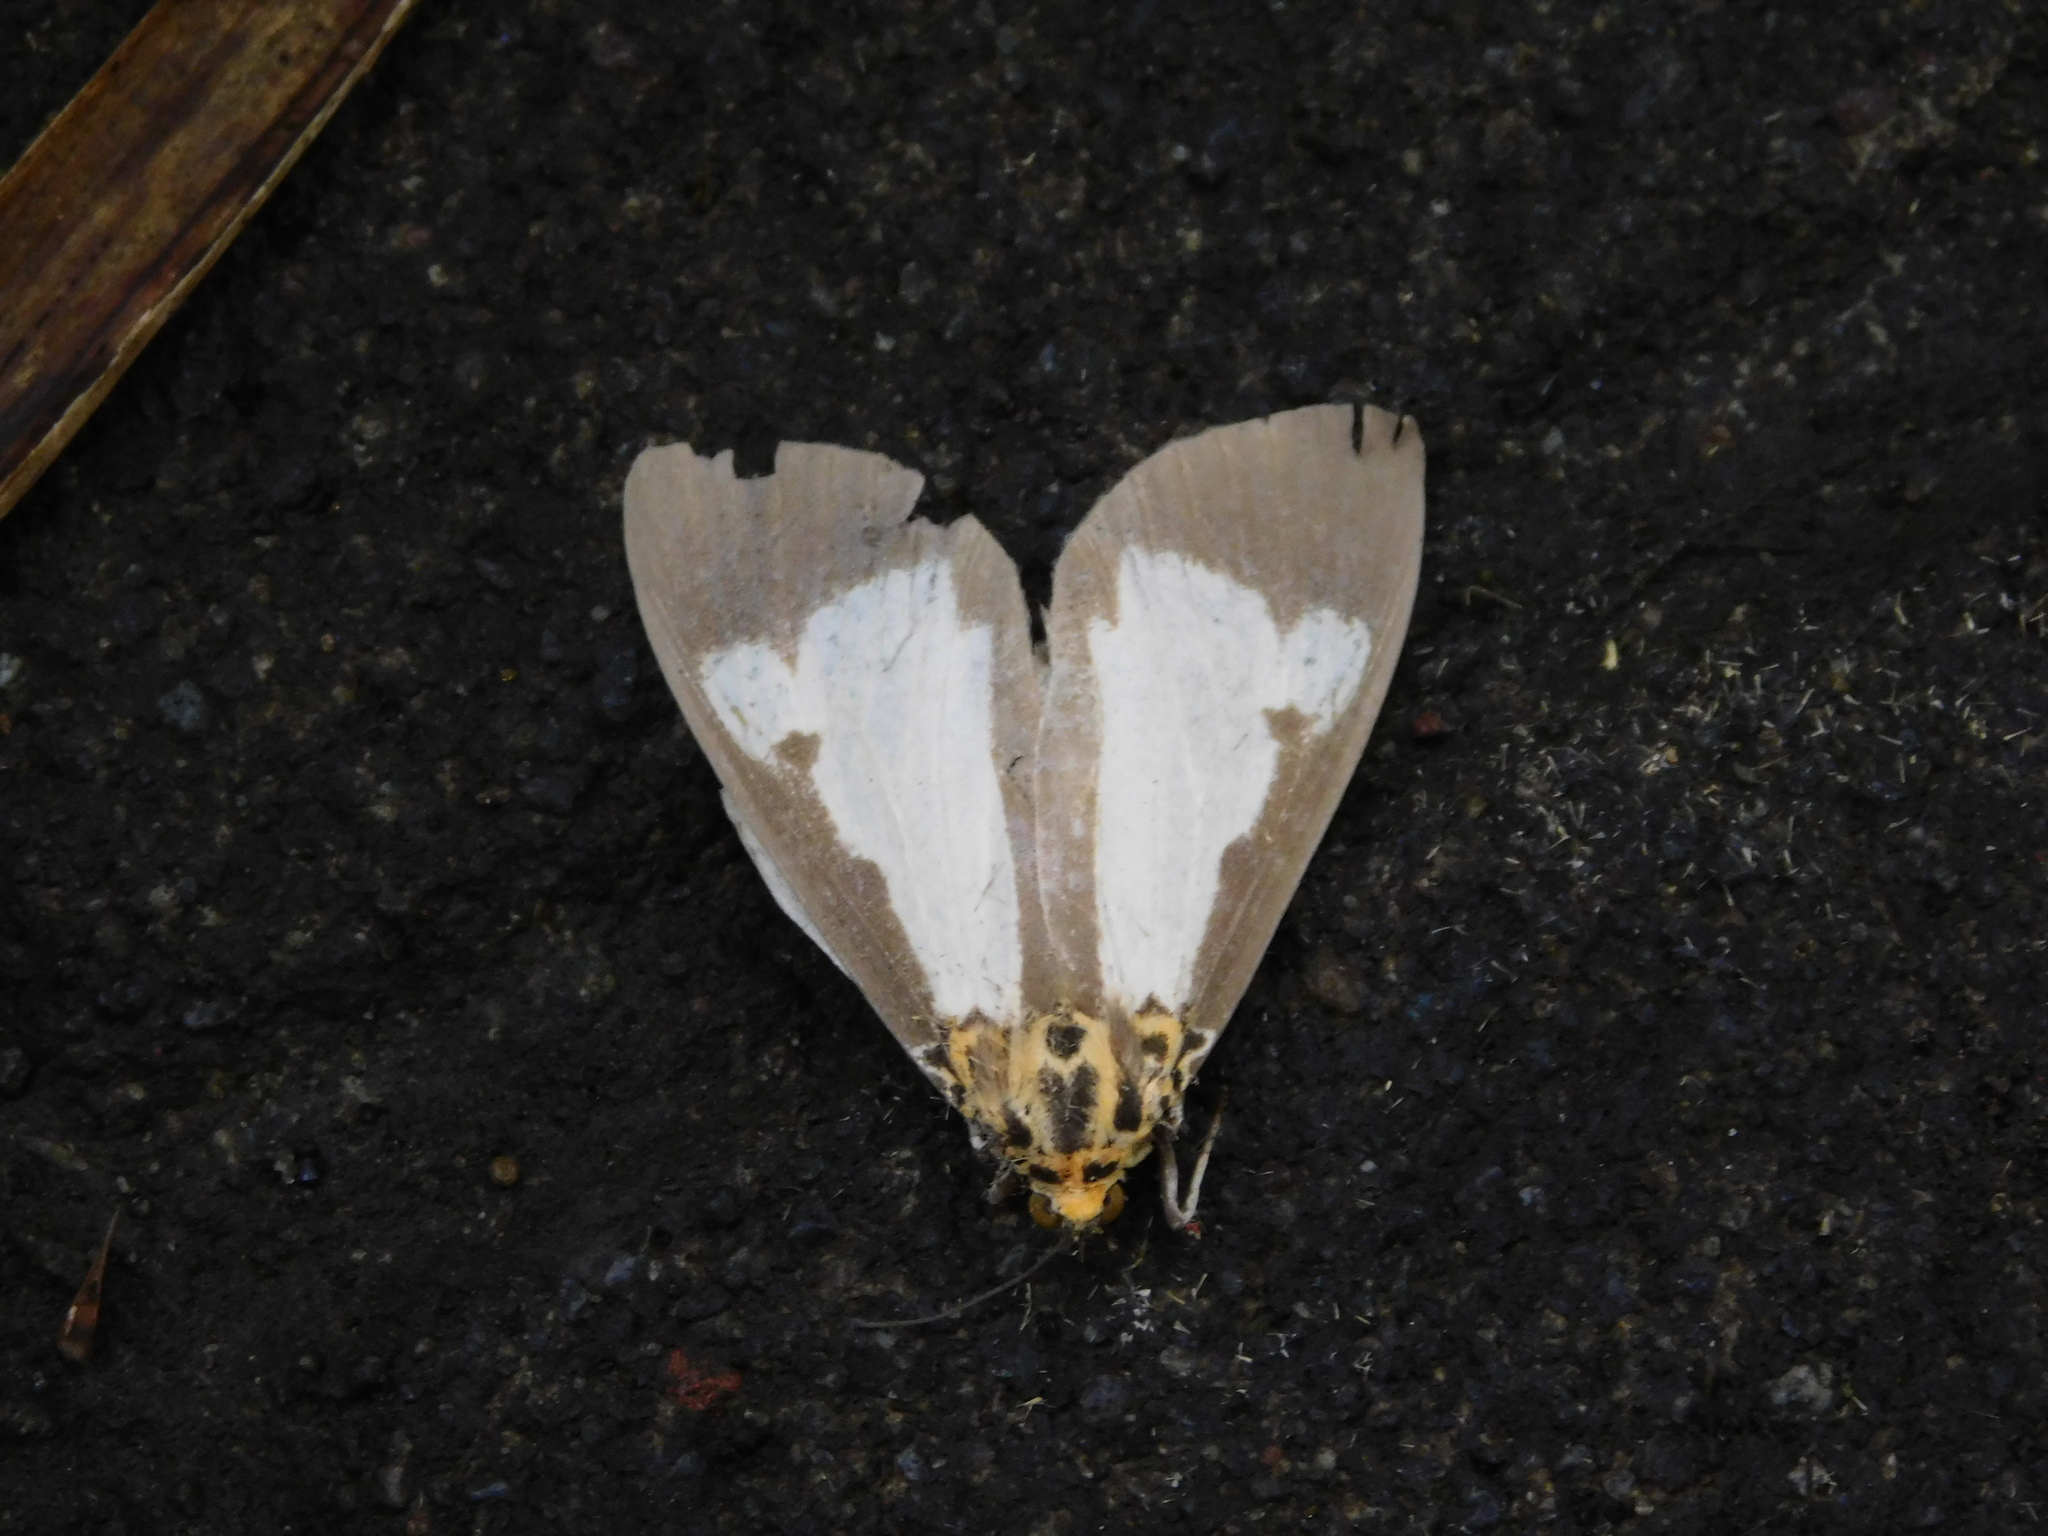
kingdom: Animalia
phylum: Arthropoda
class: Insecta
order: Lepidoptera
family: Erebidae
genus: Asota
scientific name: Asota plana
